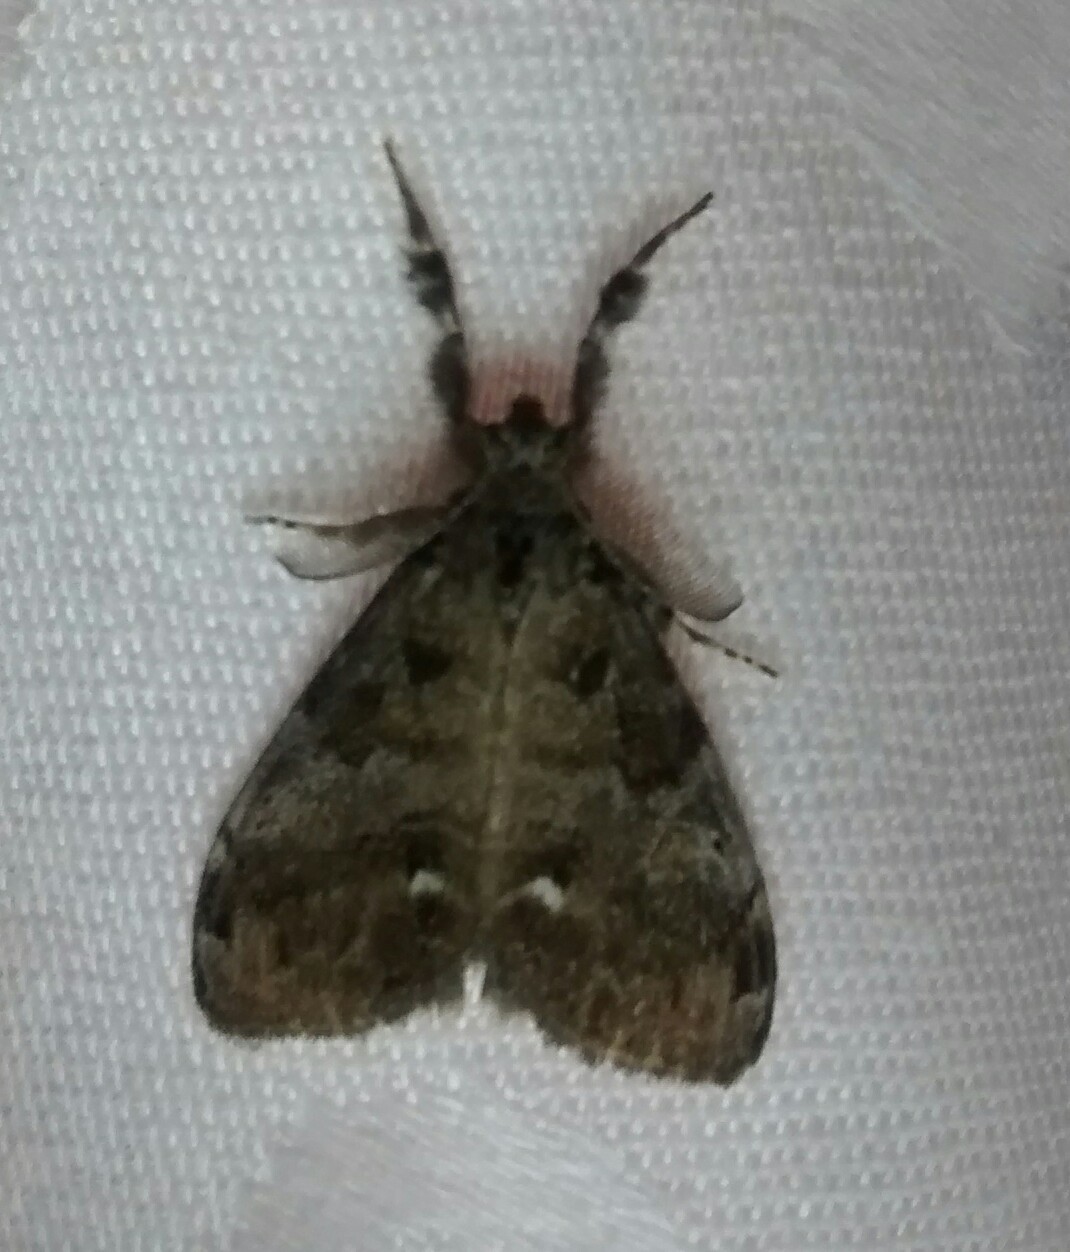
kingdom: Animalia
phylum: Arthropoda
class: Insecta
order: Lepidoptera
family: Erebidae
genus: Orgyia
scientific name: Orgyia leucostigma
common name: White-marked tussock moth
